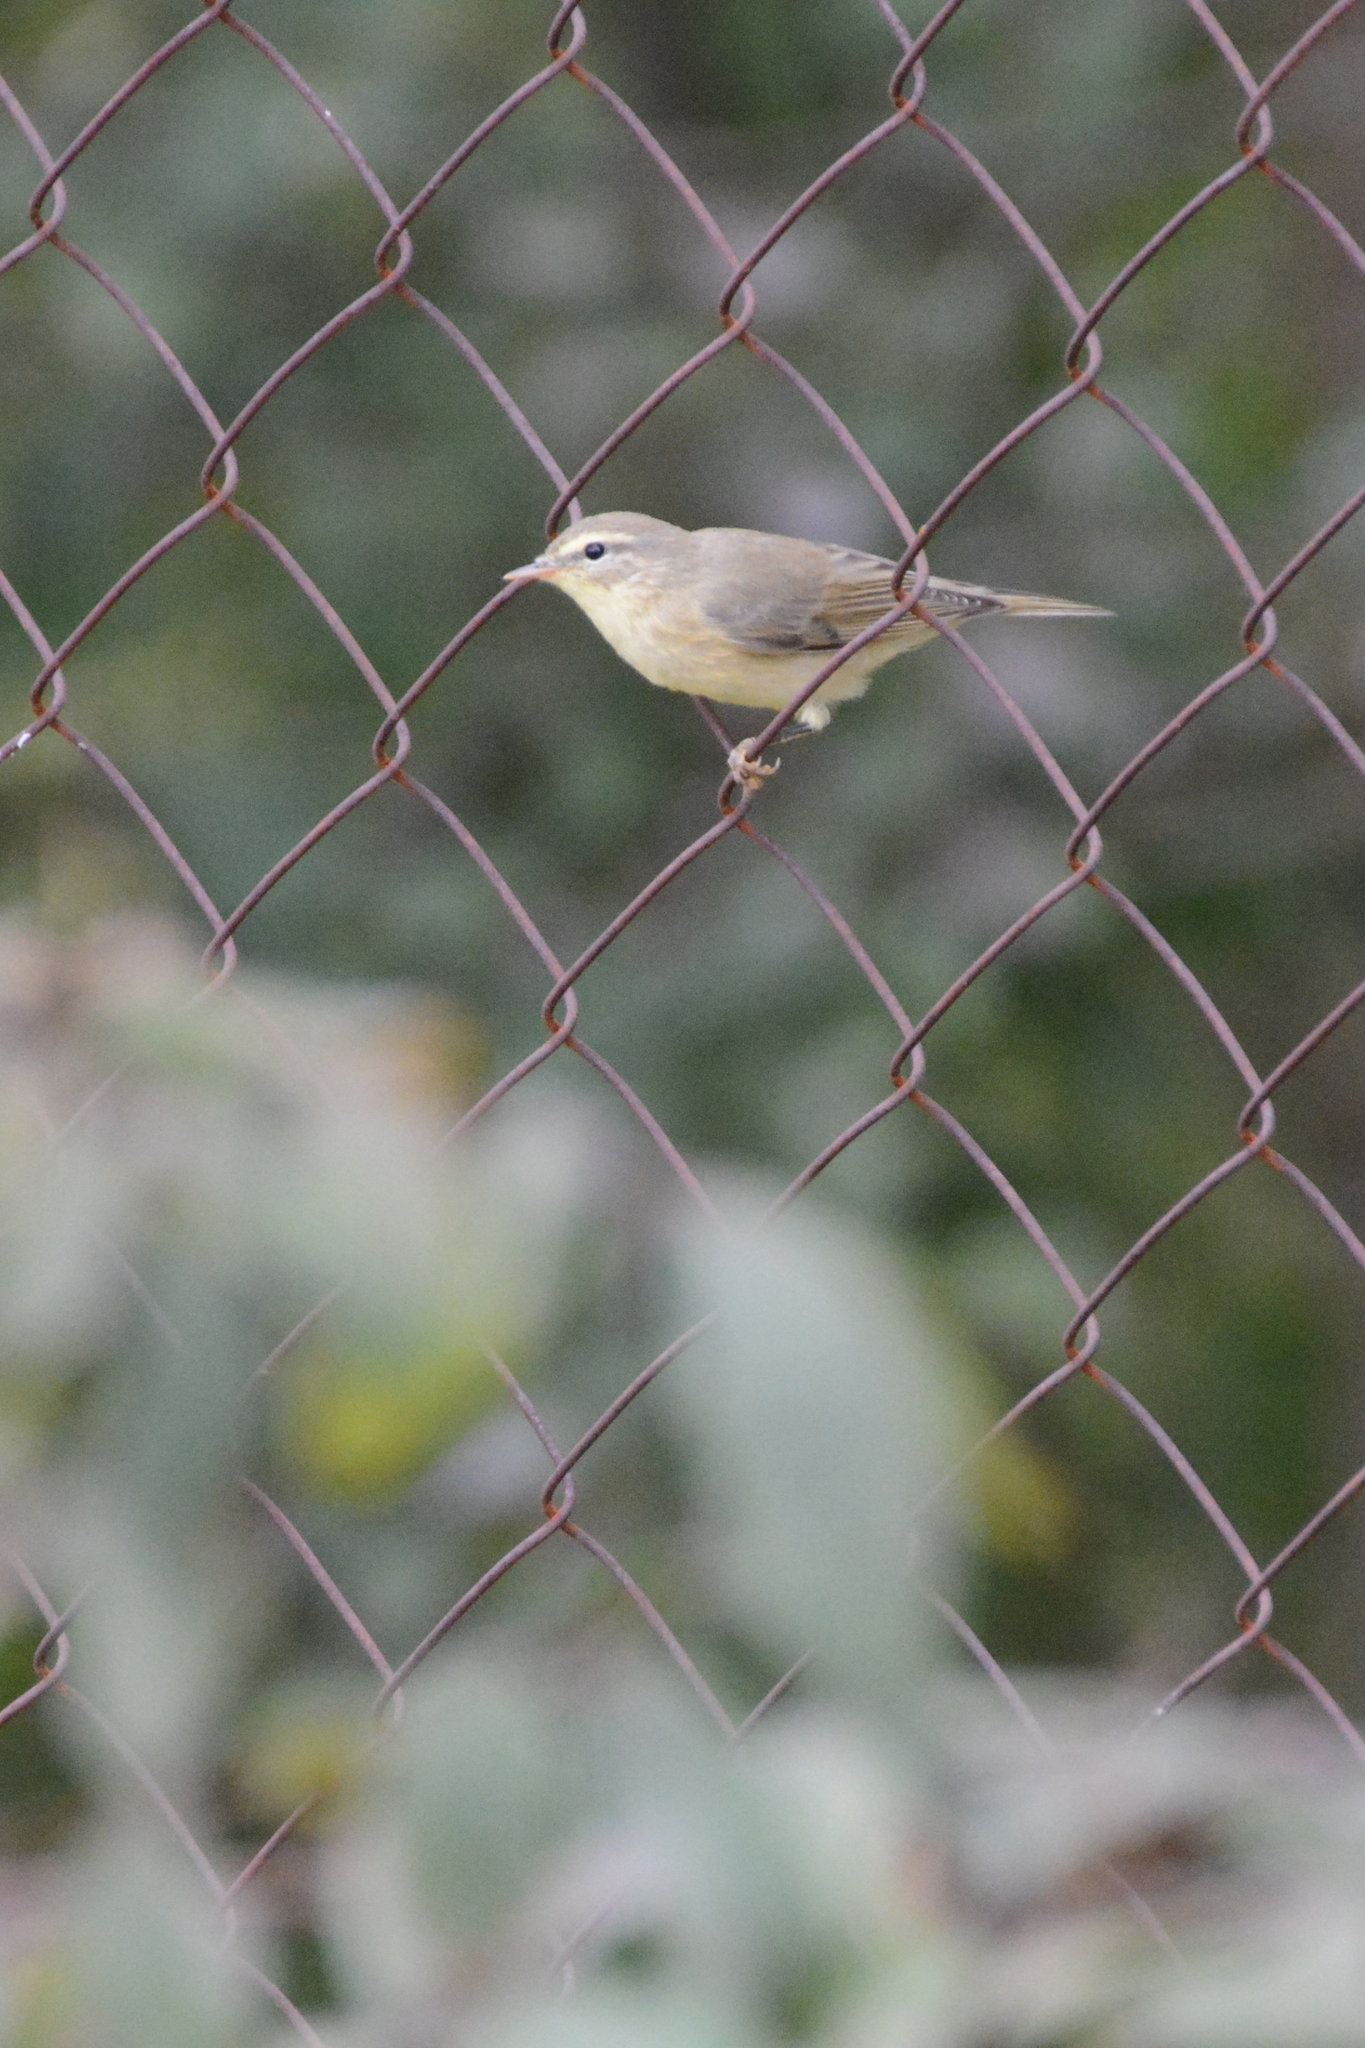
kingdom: Animalia
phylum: Chordata
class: Aves
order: Passeriformes
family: Phylloscopidae
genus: Phylloscopus
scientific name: Phylloscopus trochilus
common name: Willow warbler
